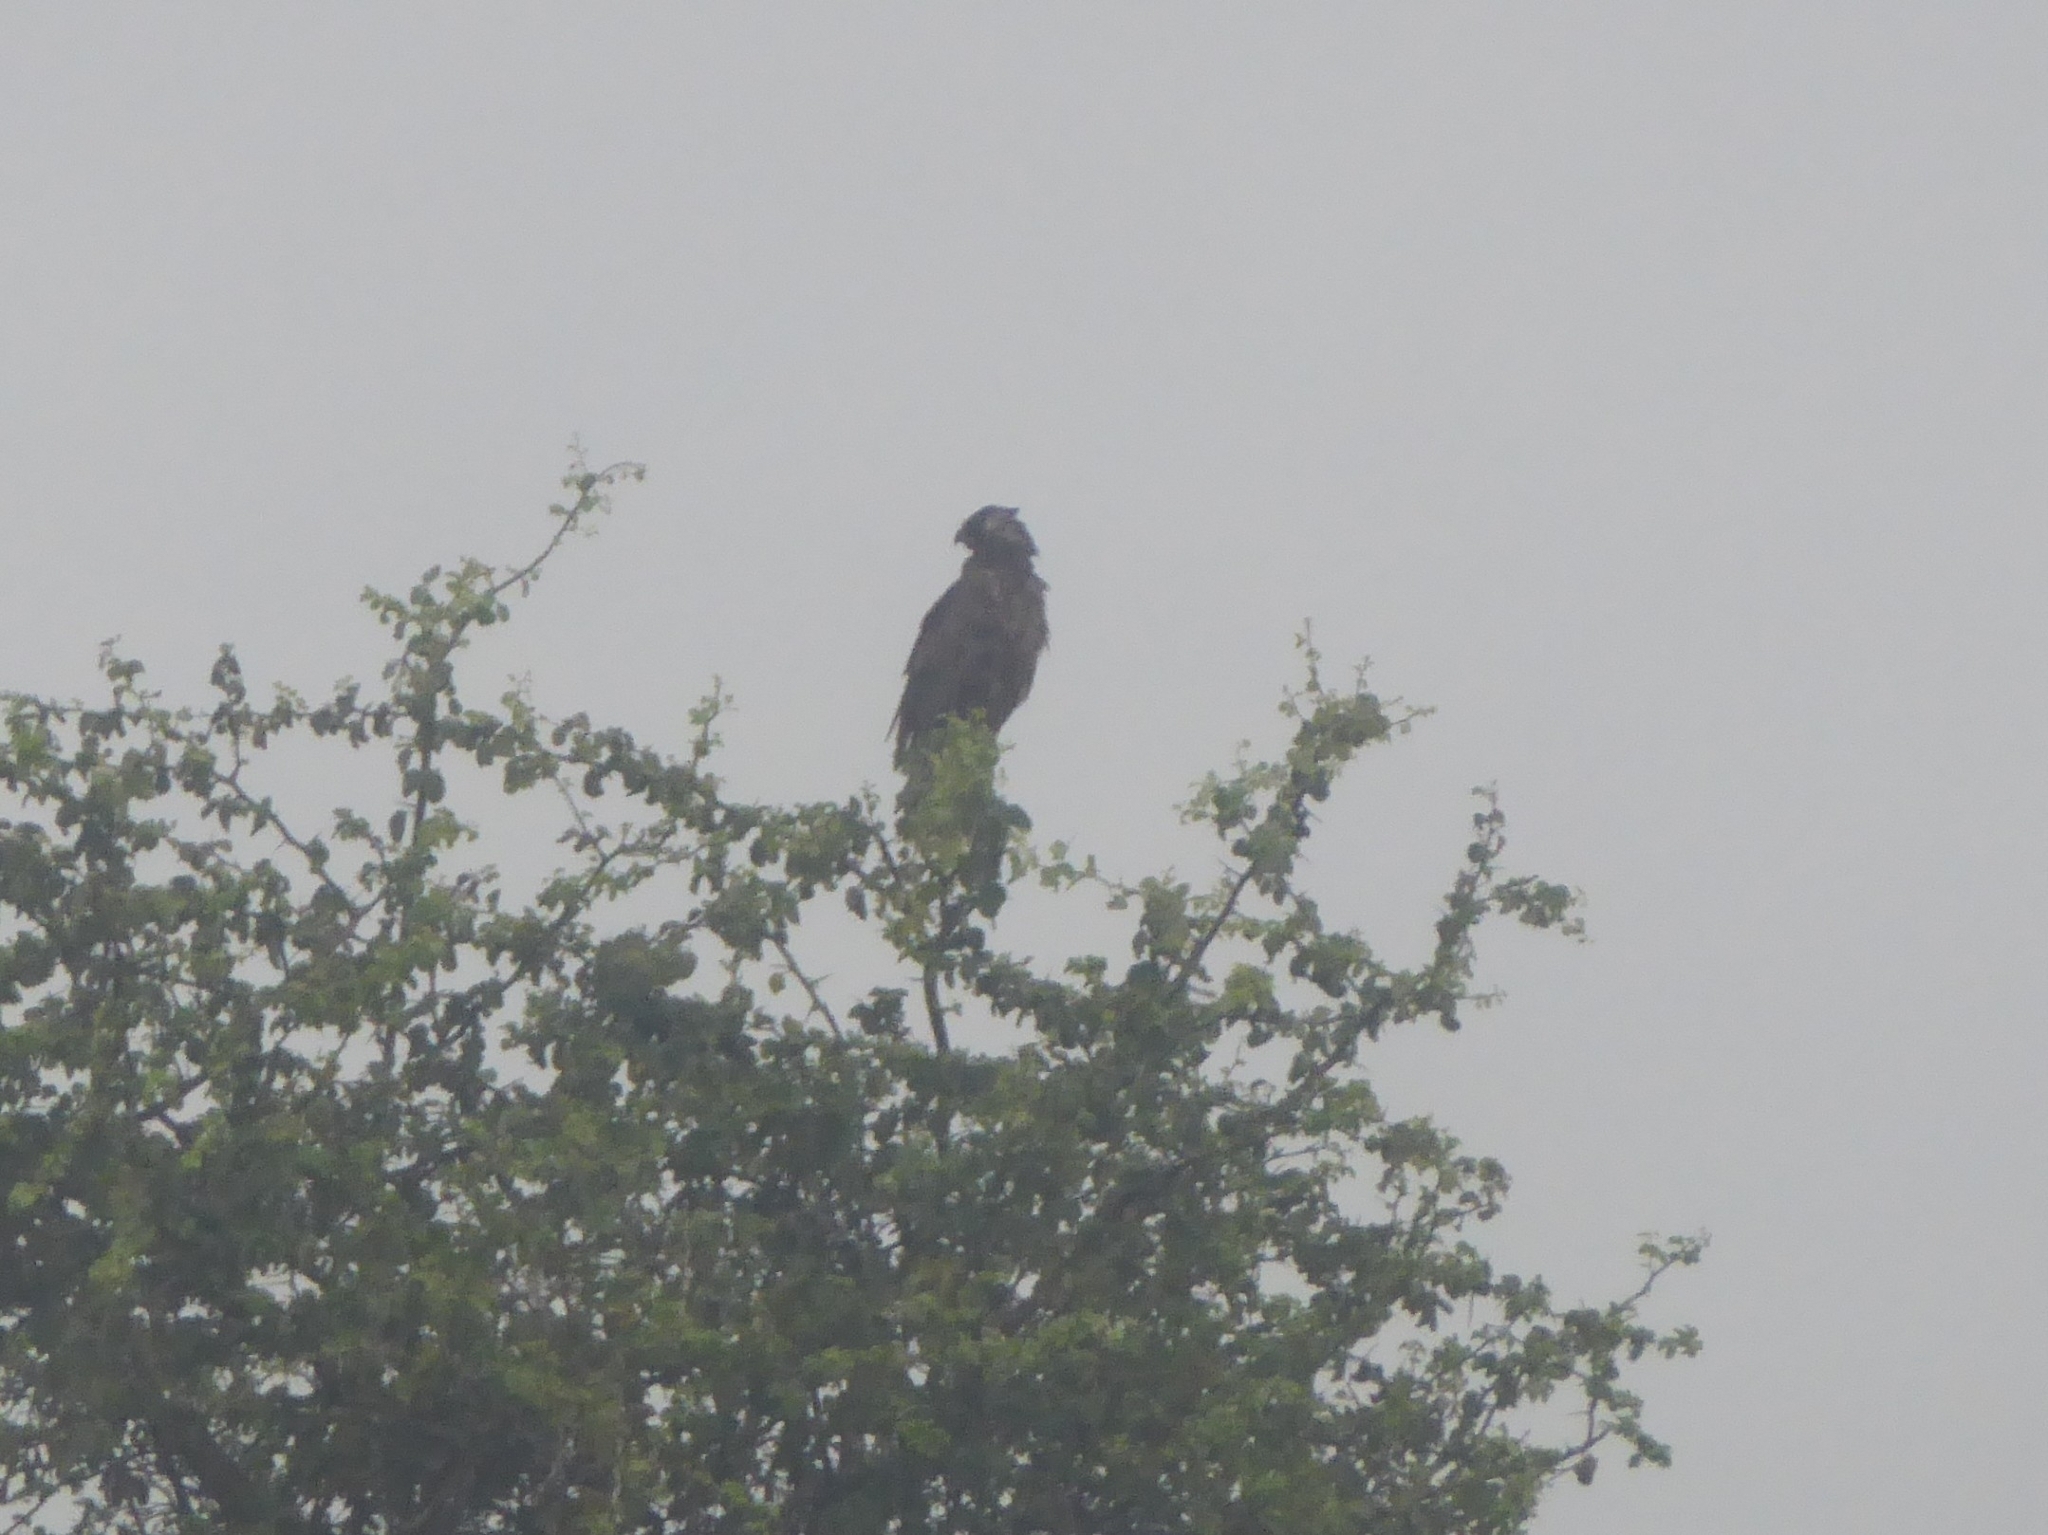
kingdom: Animalia
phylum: Chordata
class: Aves
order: Accipitriformes
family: Accipitridae
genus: Circaetus
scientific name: Circaetus cinereus
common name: Brown snake eagle
